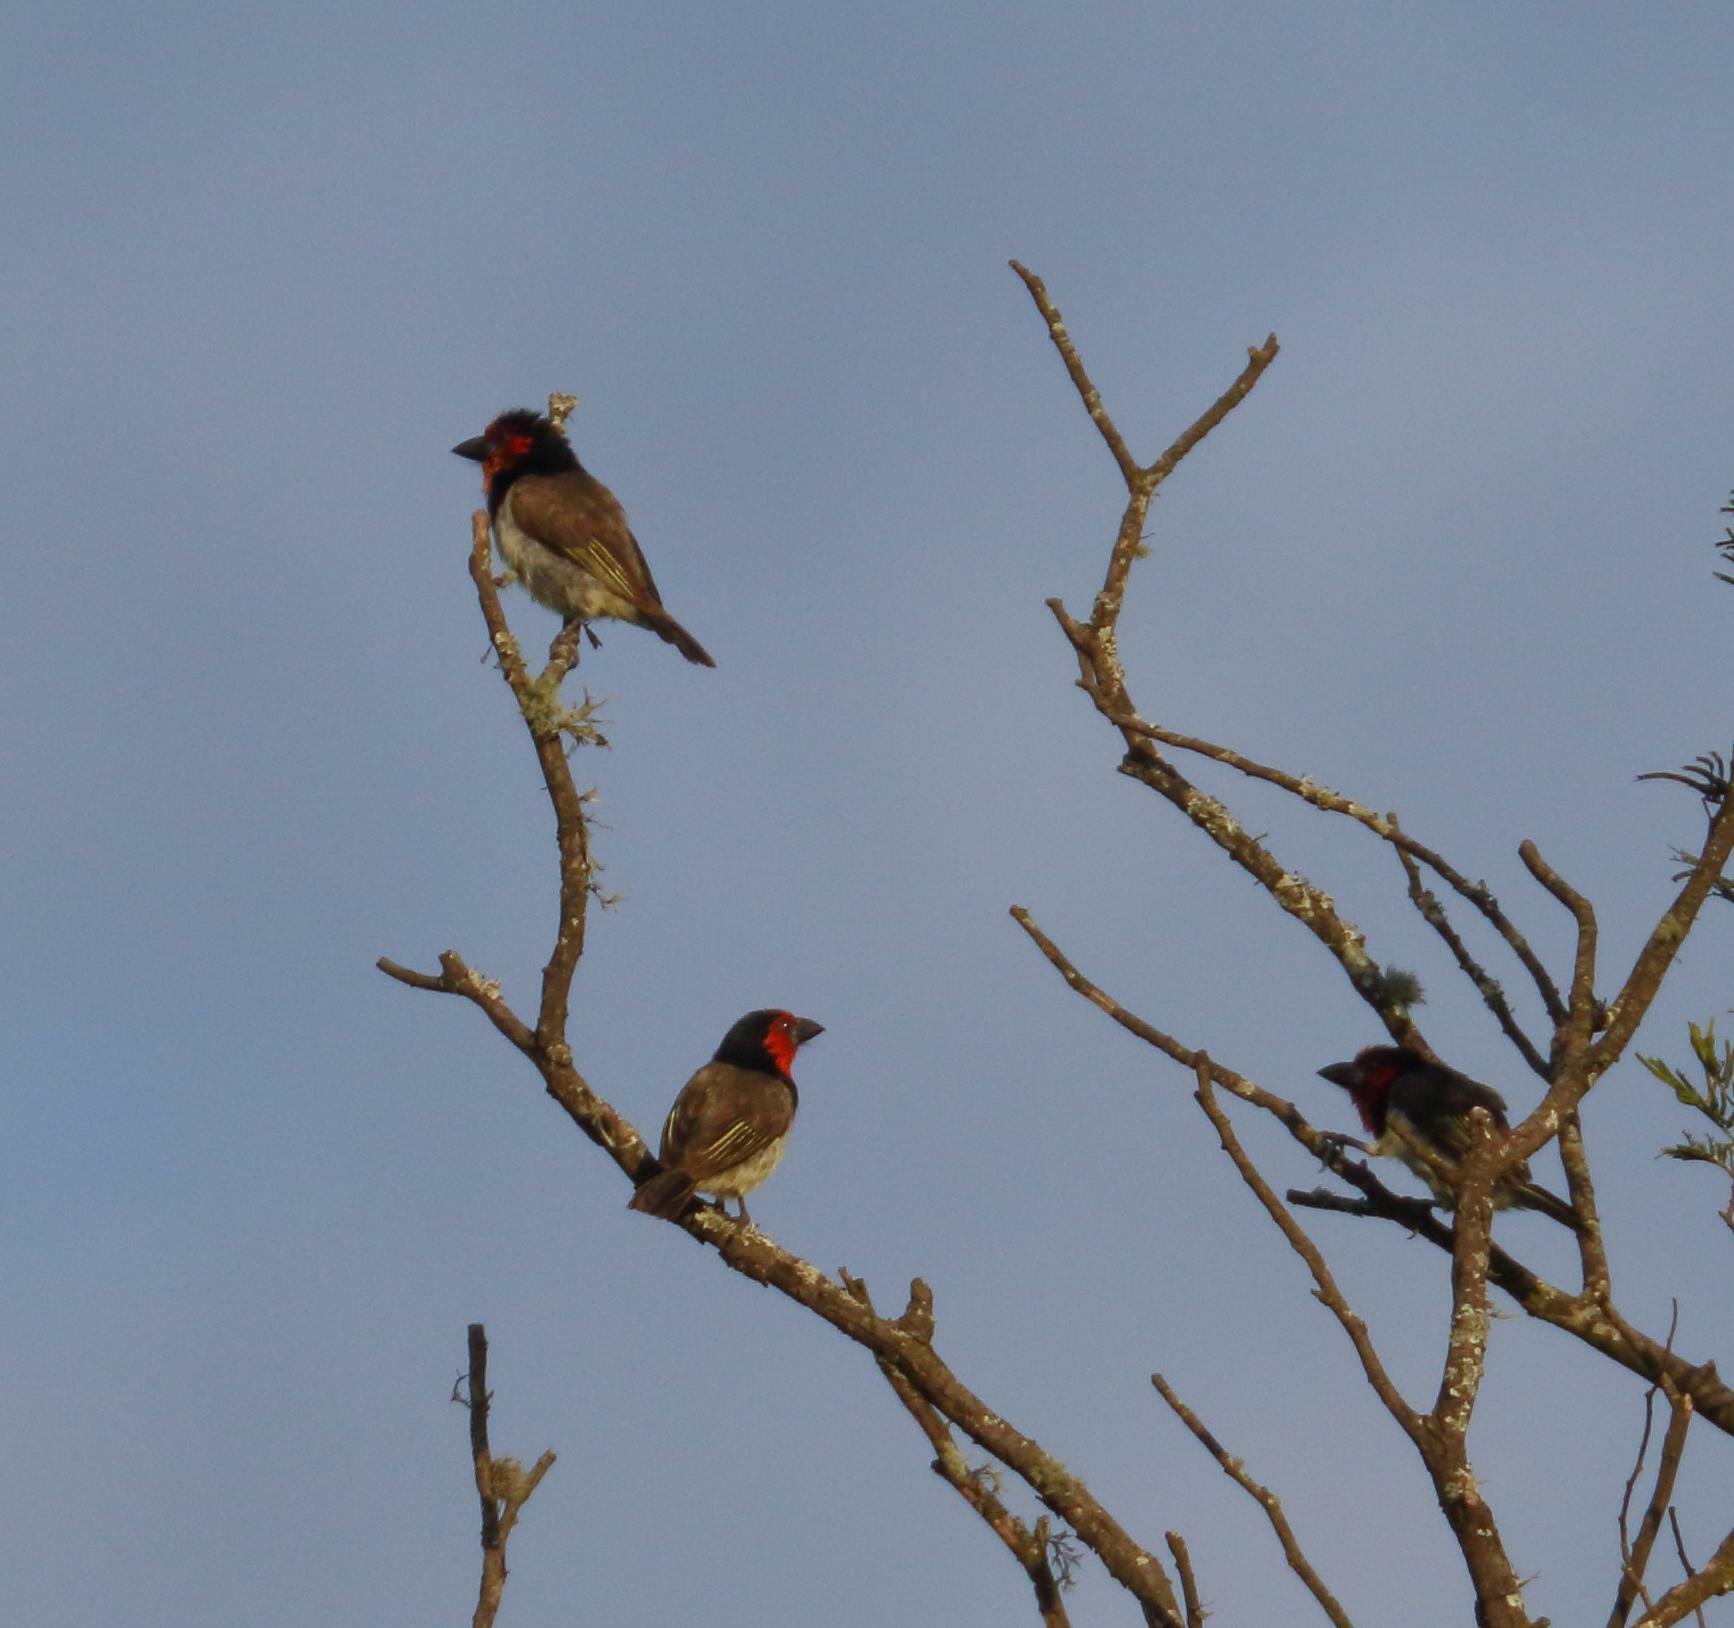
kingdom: Animalia
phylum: Chordata
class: Aves
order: Piciformes
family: Lybiidae
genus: Lybius
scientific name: Lybius torquatus
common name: Black-collared barbet
